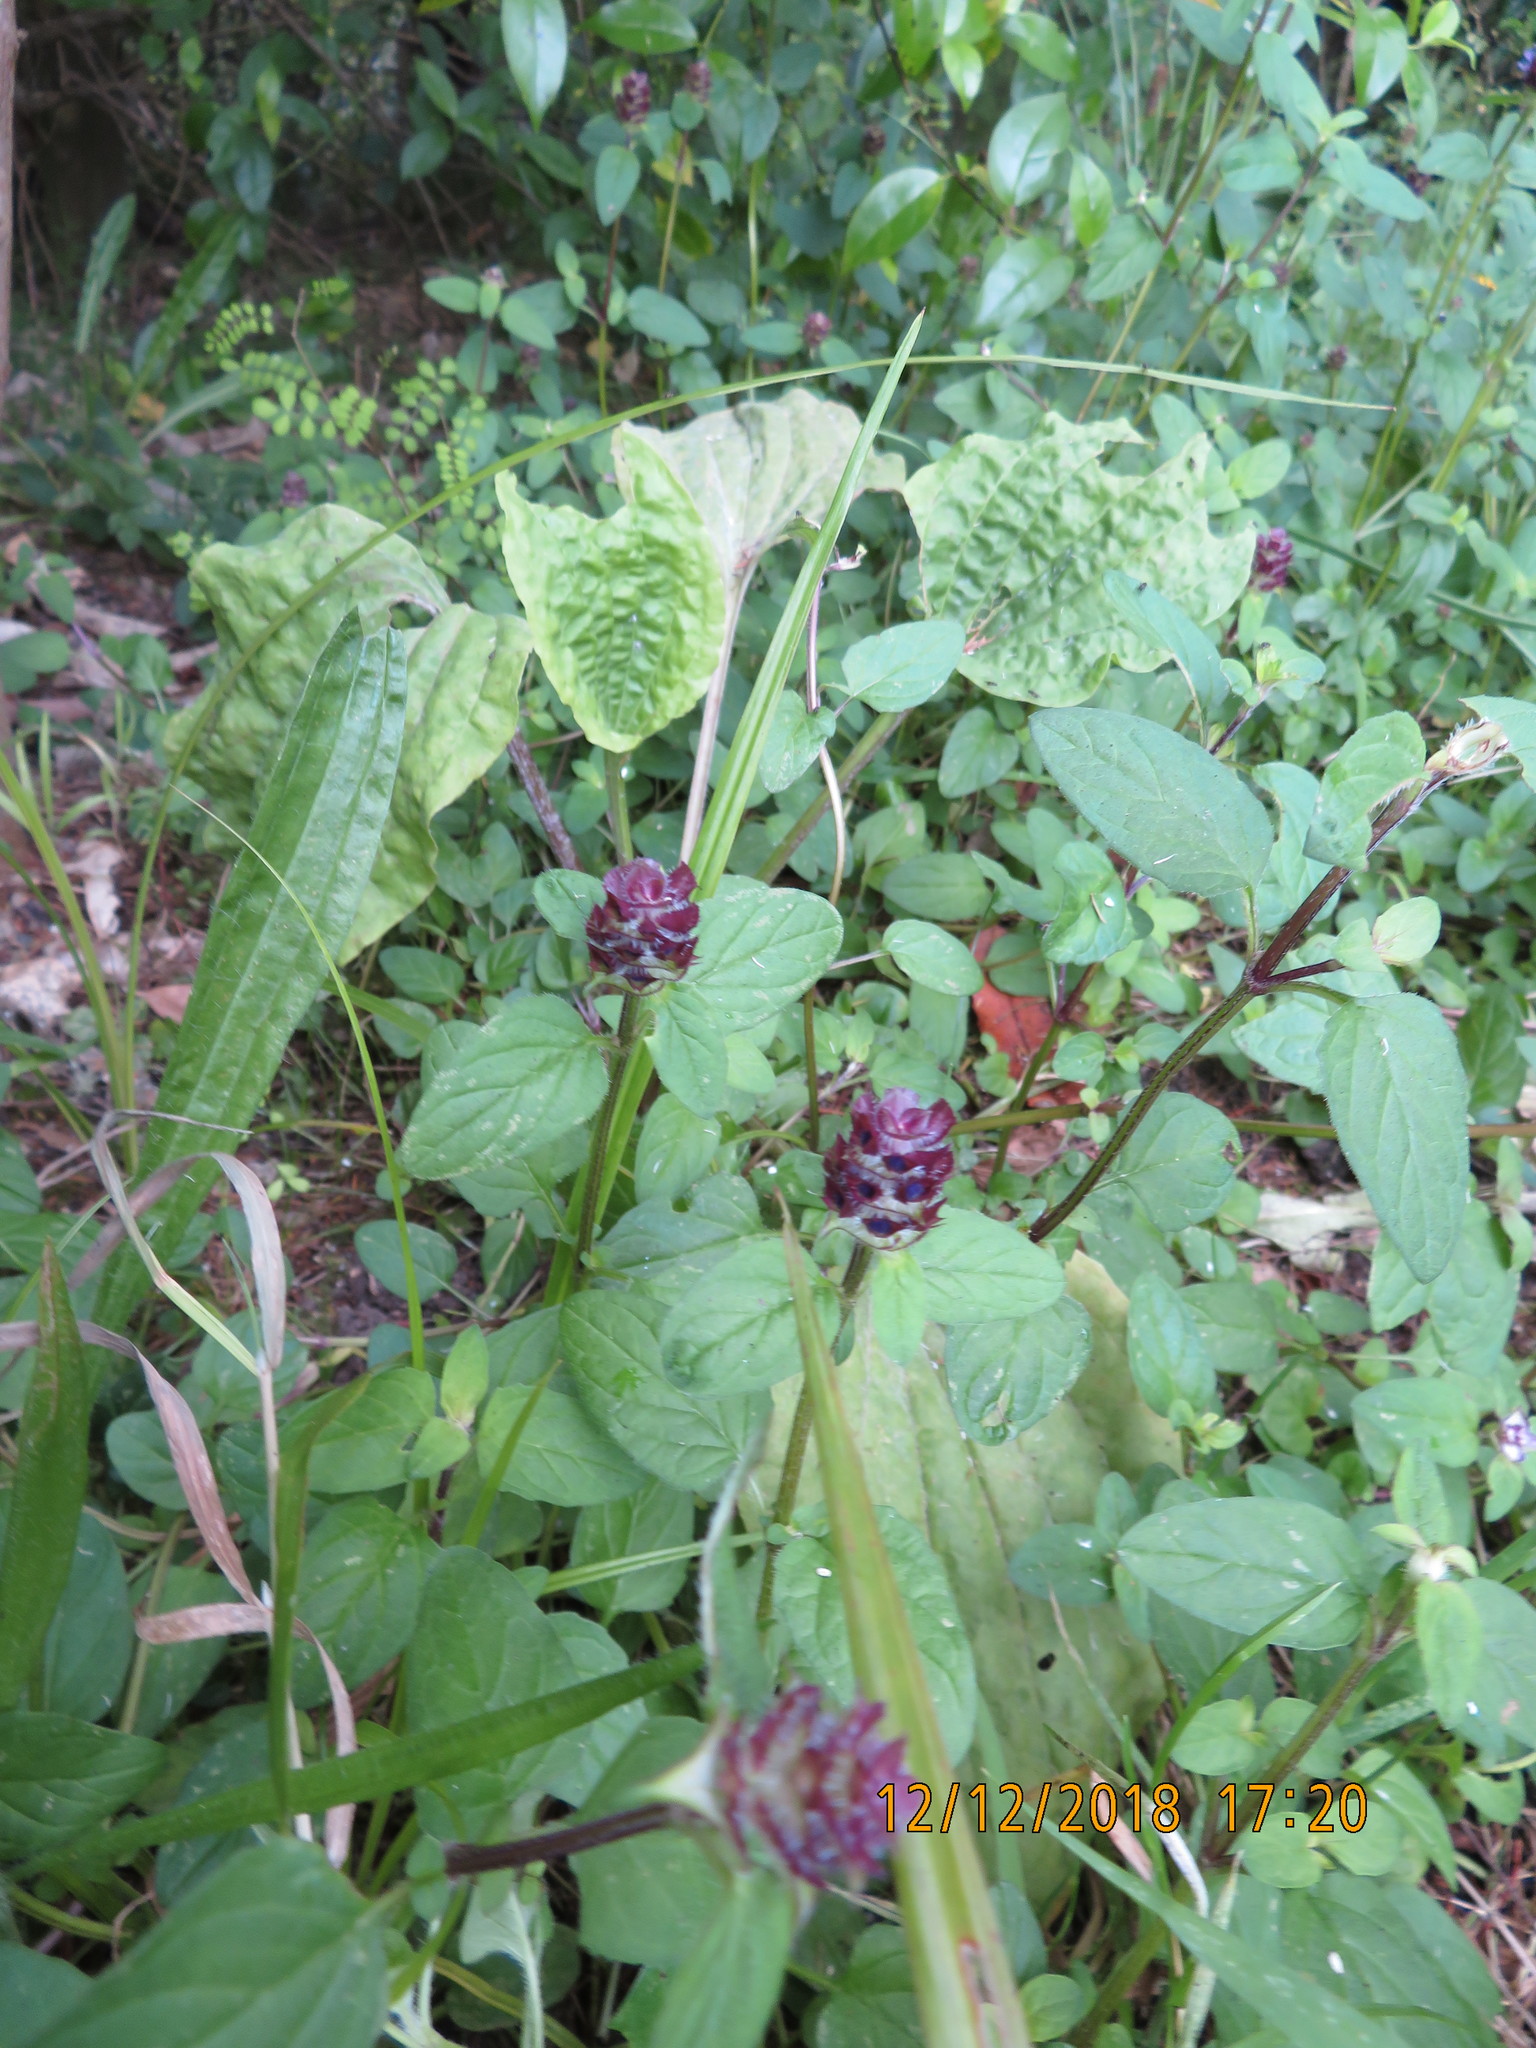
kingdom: Plantae
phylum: Tracheophyta
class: Liliopsida
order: Asparagales
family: Asparagaceae
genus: Cordyline
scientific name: Cordyline australis
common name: Cabbage-palm
